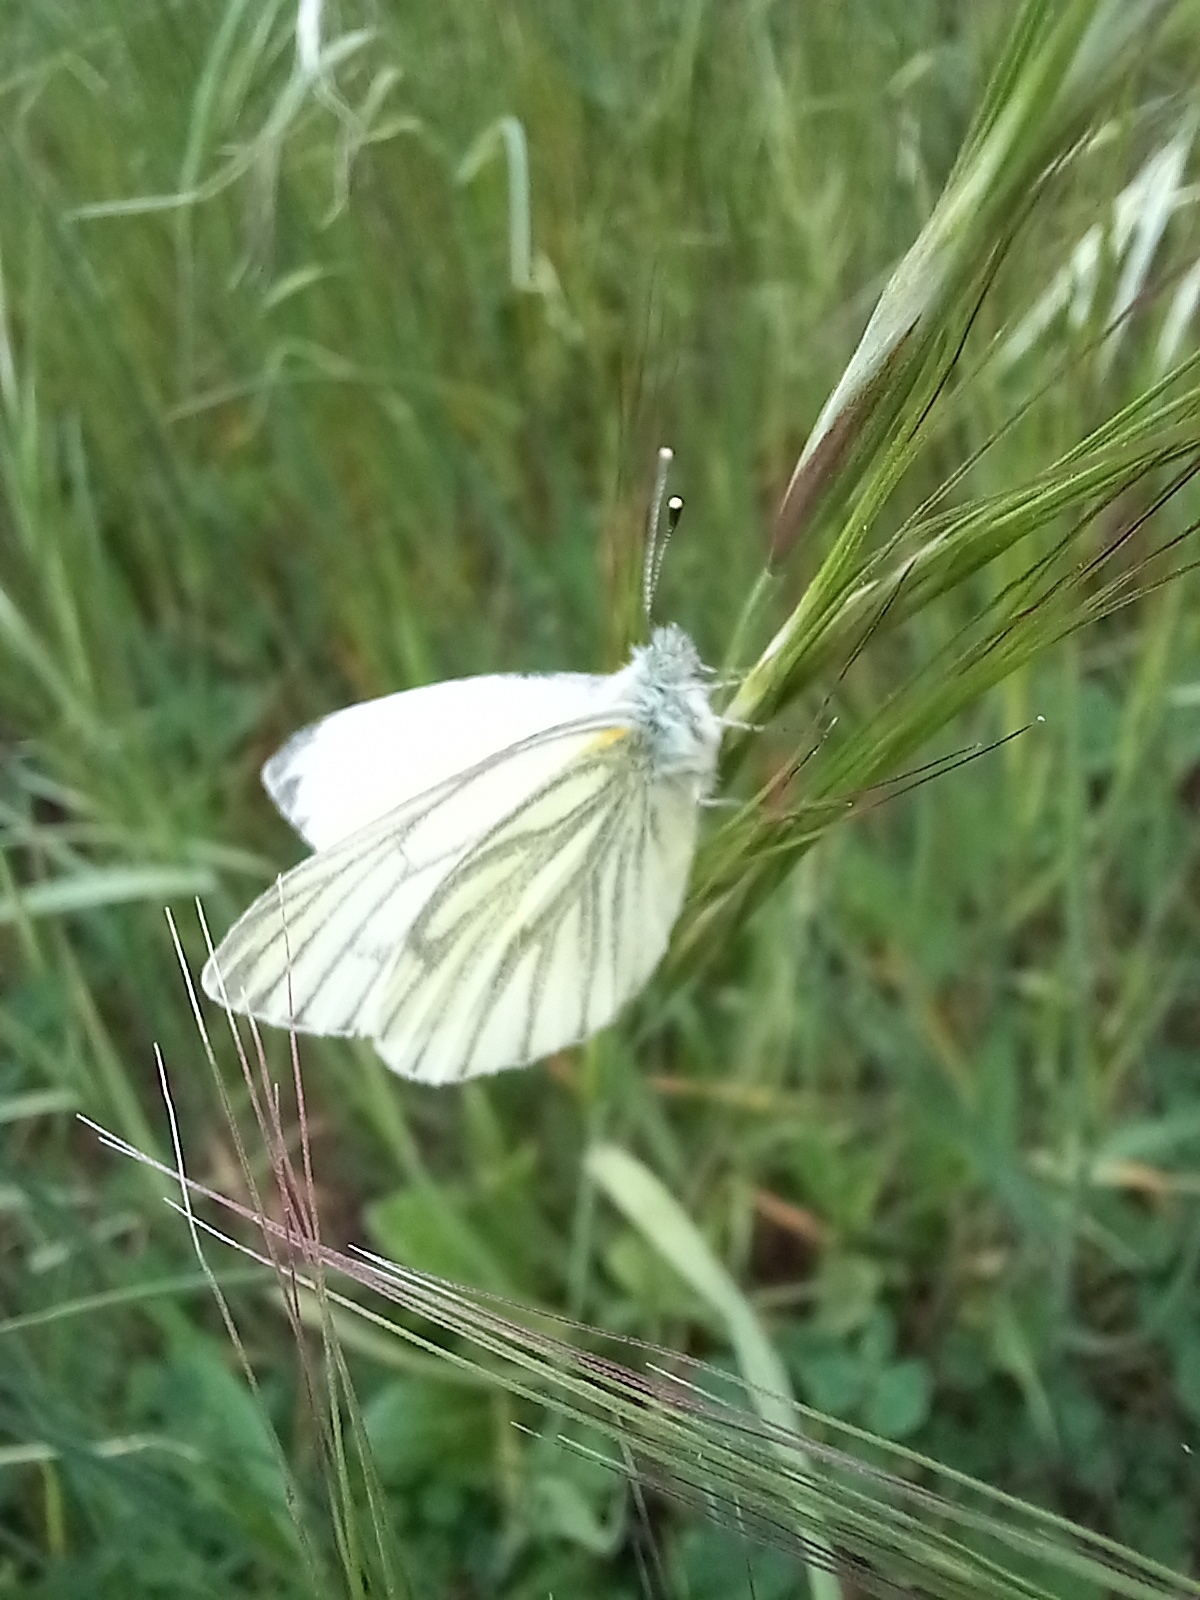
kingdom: Animalia
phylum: Arthropoda
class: Insecta
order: Lepidoptera
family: Pieridae
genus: Pieris
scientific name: Pieris napi
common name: Green-veined white
